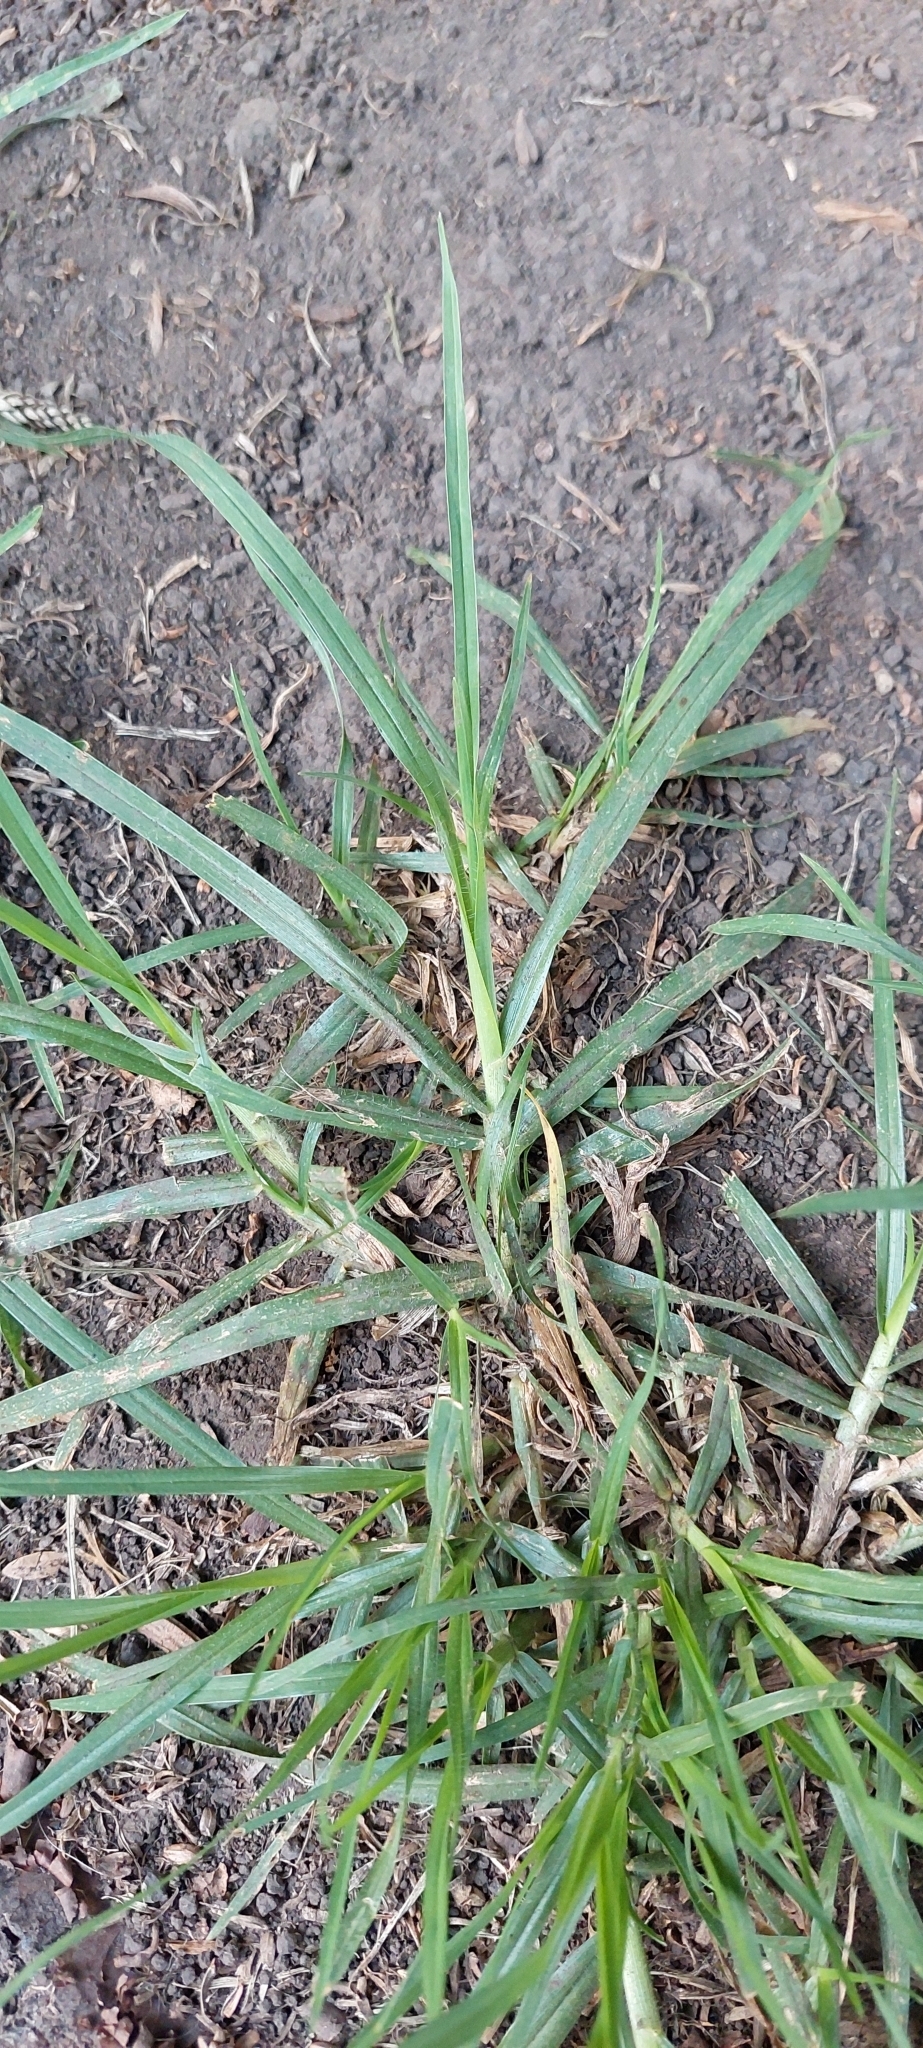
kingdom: Plantae
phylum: Tracheophyta
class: Liliopsida
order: Poales
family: Poaceae
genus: Cenchrus
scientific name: Cenchrus clandestinus
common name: Kikuyugrass
